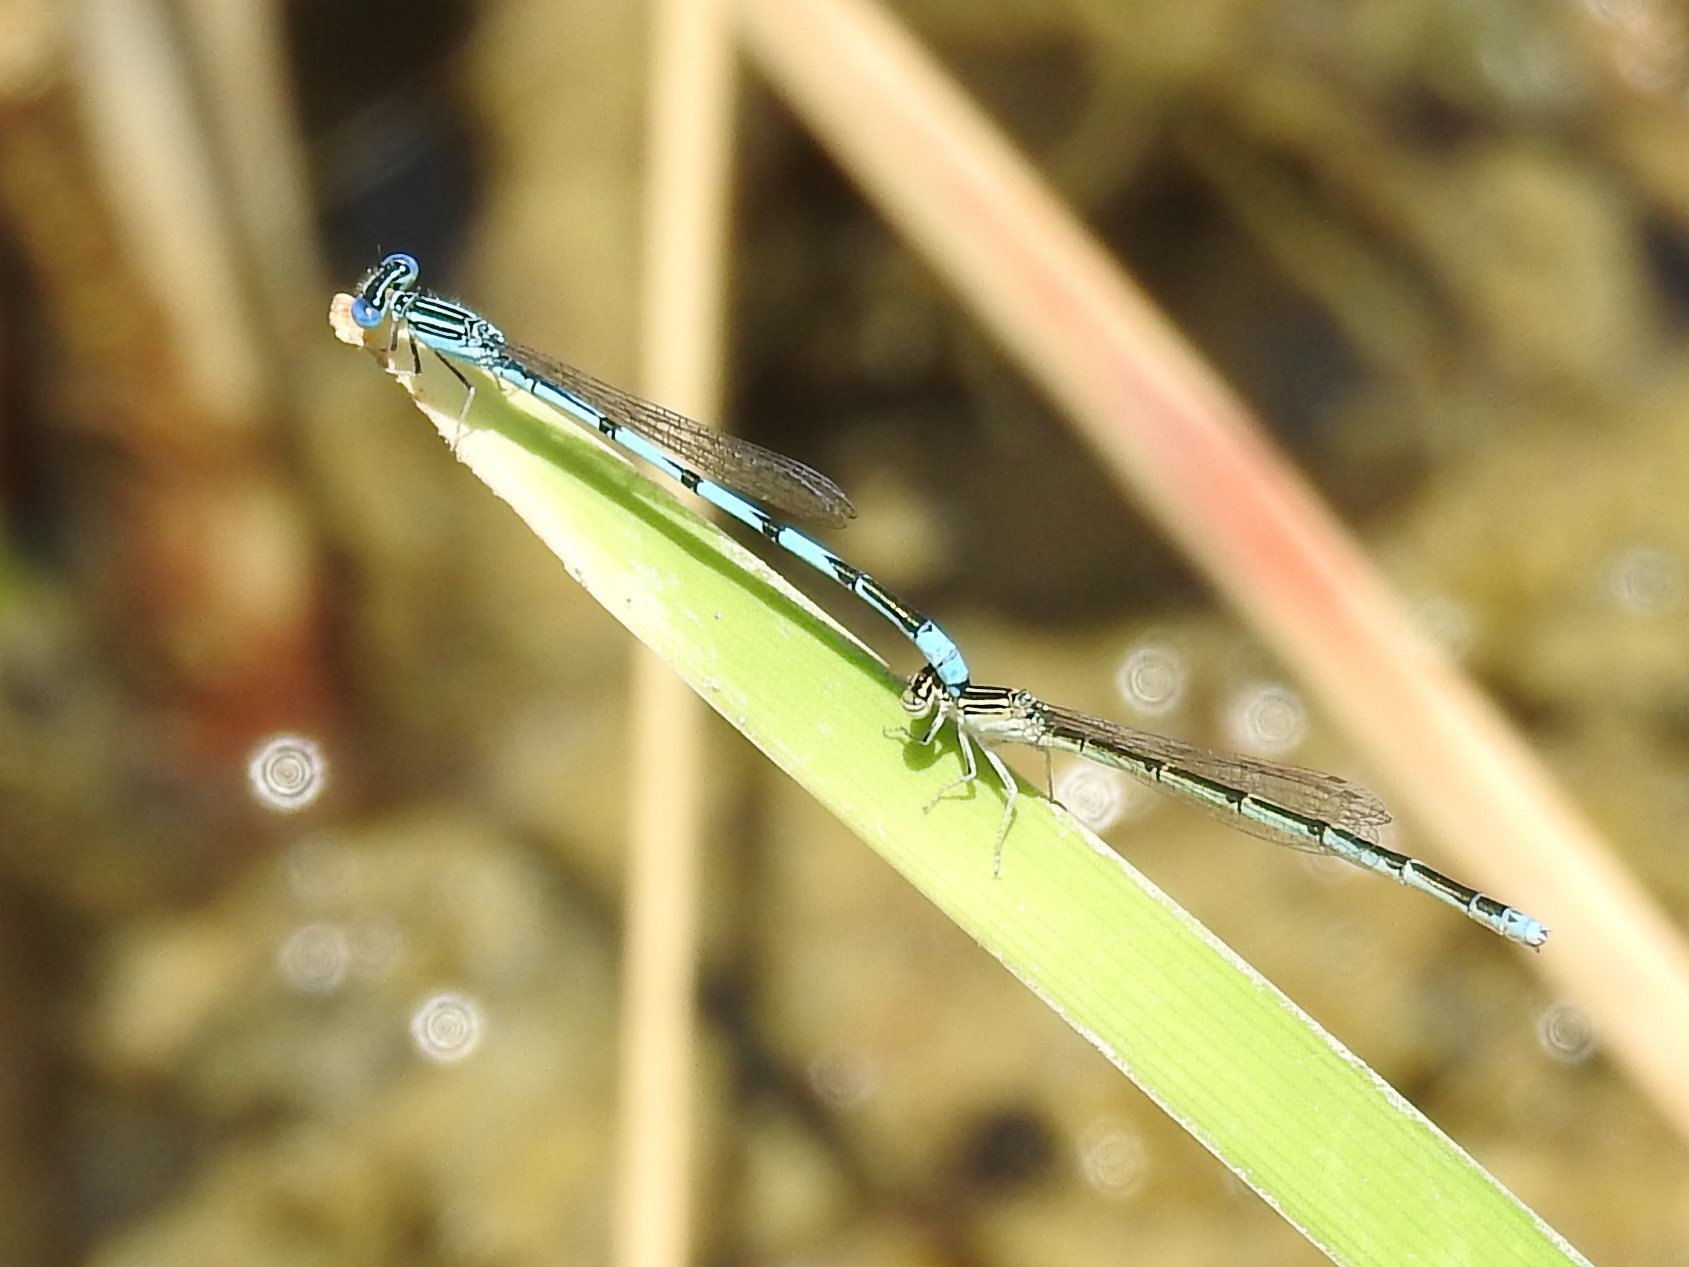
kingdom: Animalia
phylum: Arthropoda
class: Insecta
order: Odonata
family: Coenagrionidae
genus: Enallagma
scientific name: Enallagma basidens
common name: Double-striped bluet
